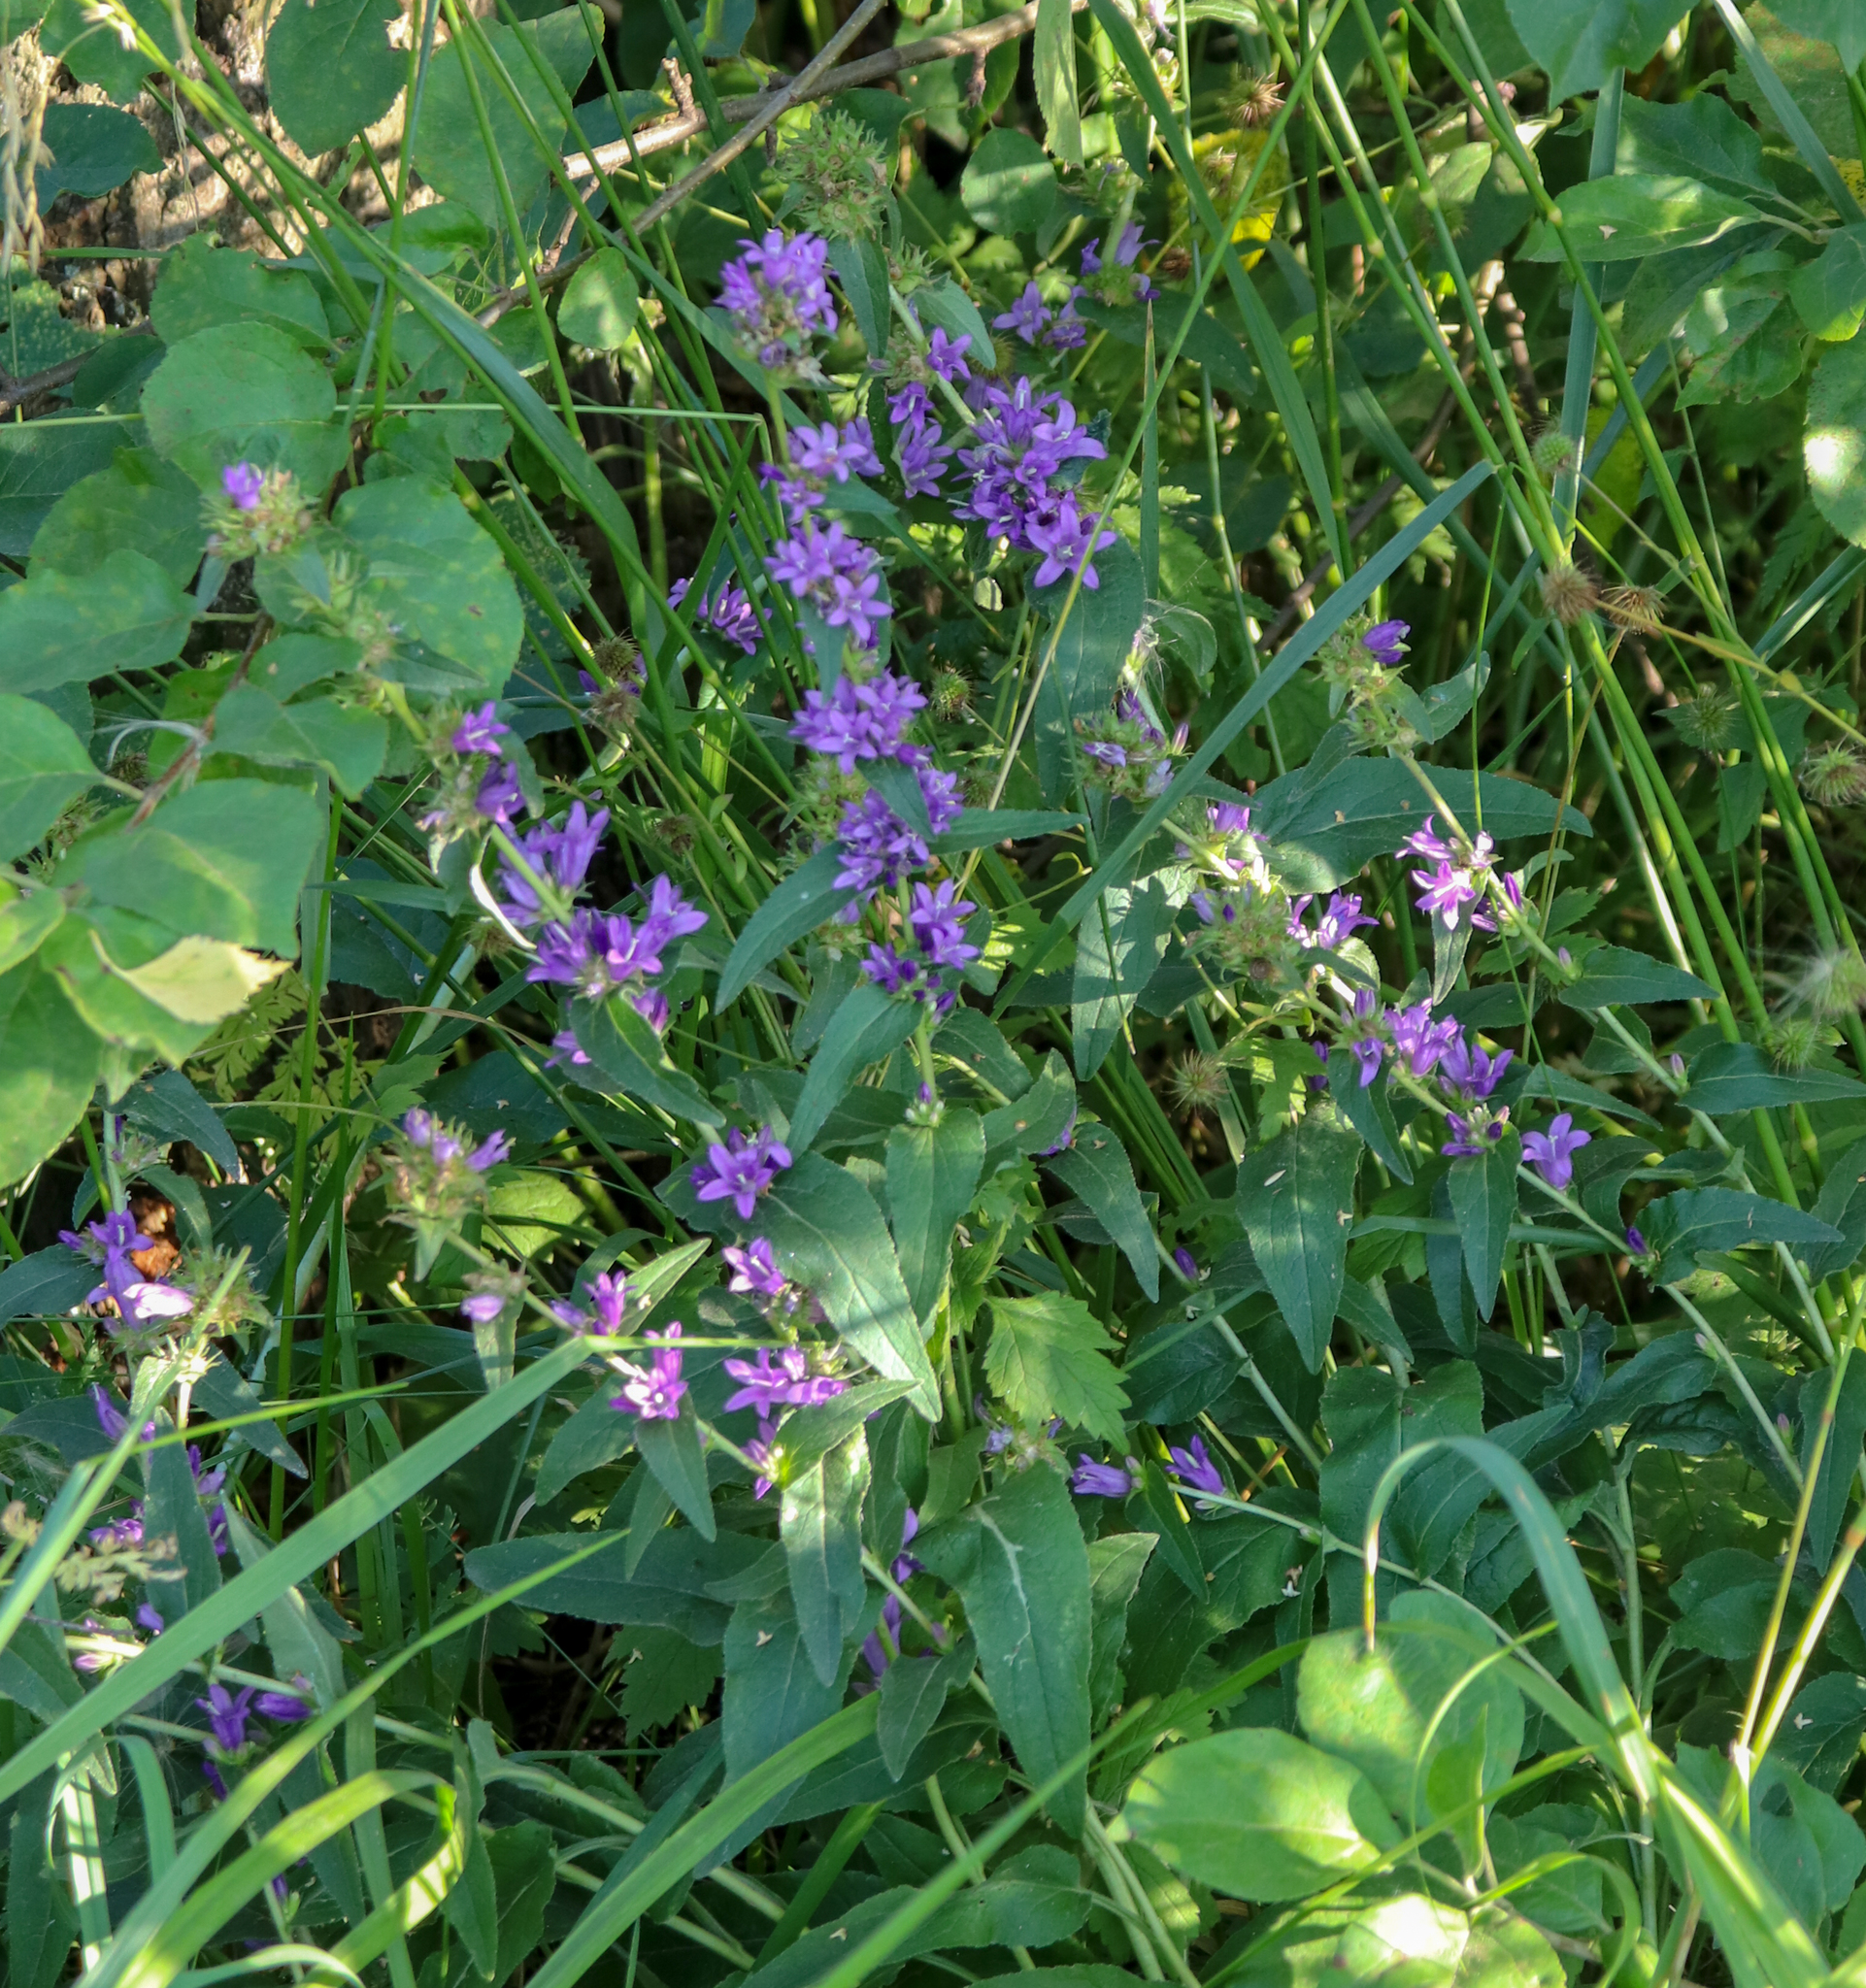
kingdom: Plantae
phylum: Tracheophyta
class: Magnoliopsida
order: Asterales
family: Campanulaceae
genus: Campanula
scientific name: Campanula glomerata
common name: Clustered bellflower
